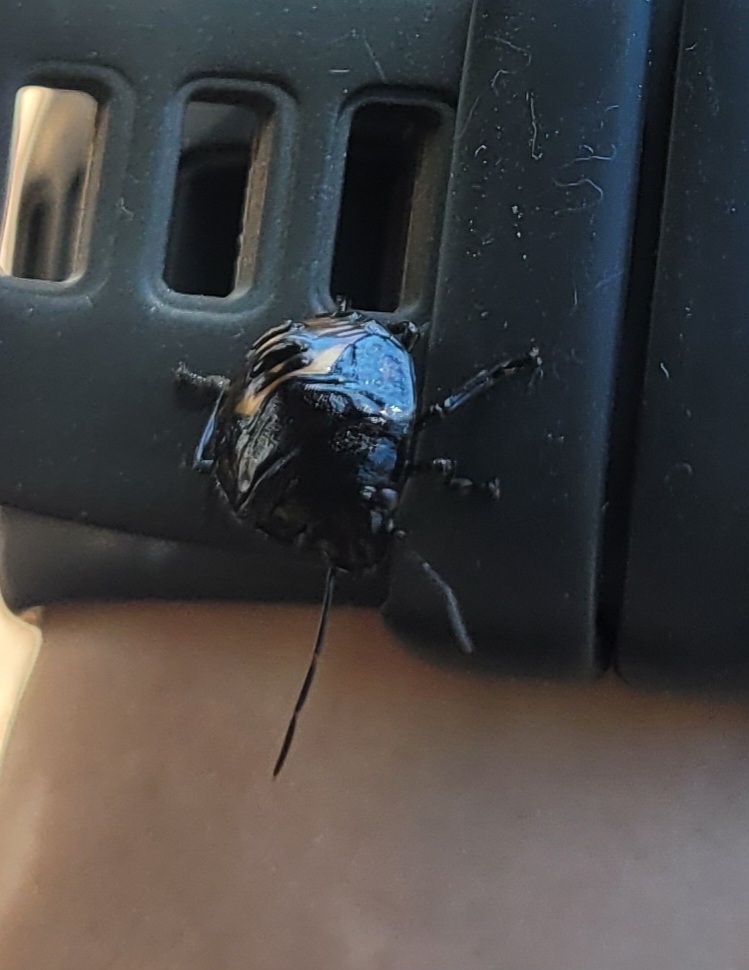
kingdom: Animalia
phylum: Arthropoda
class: Insecta
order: Hemiptera
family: Pentatomidae
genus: Glaucias
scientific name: Glaucias amyota
